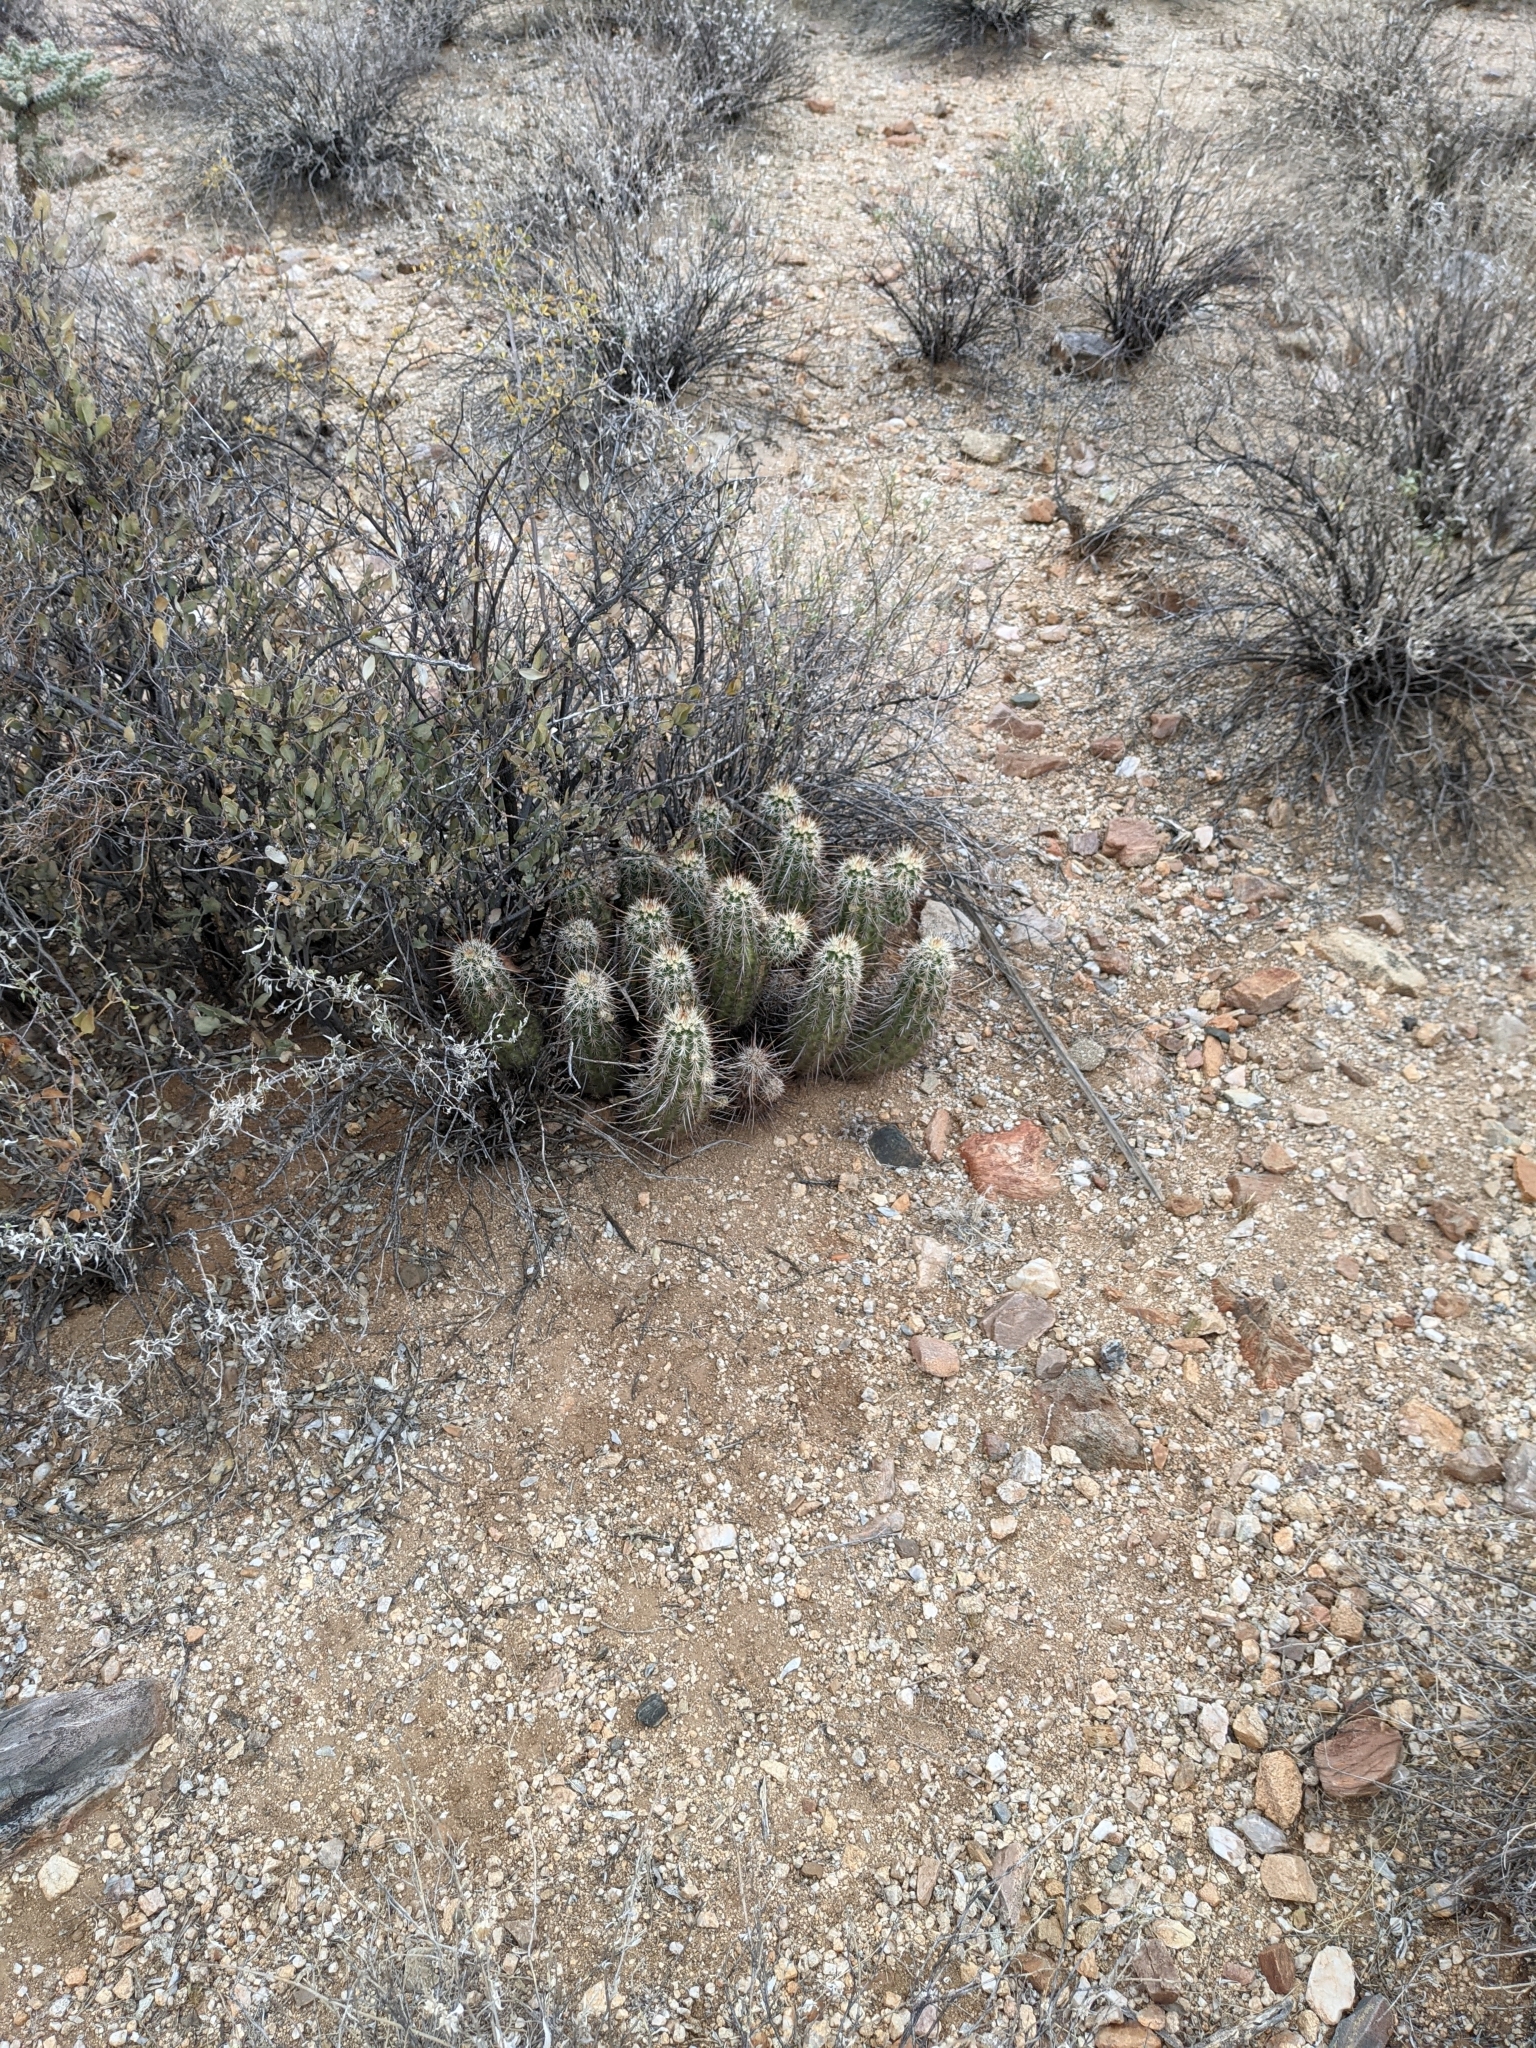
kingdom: Plantae
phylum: Tracheophyta
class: Magnoliopsida
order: Caryophyllales
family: Cactaceae
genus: Echinocereus
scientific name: Echinocereus engelmannii
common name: Engelmann's hedgehog cactus
